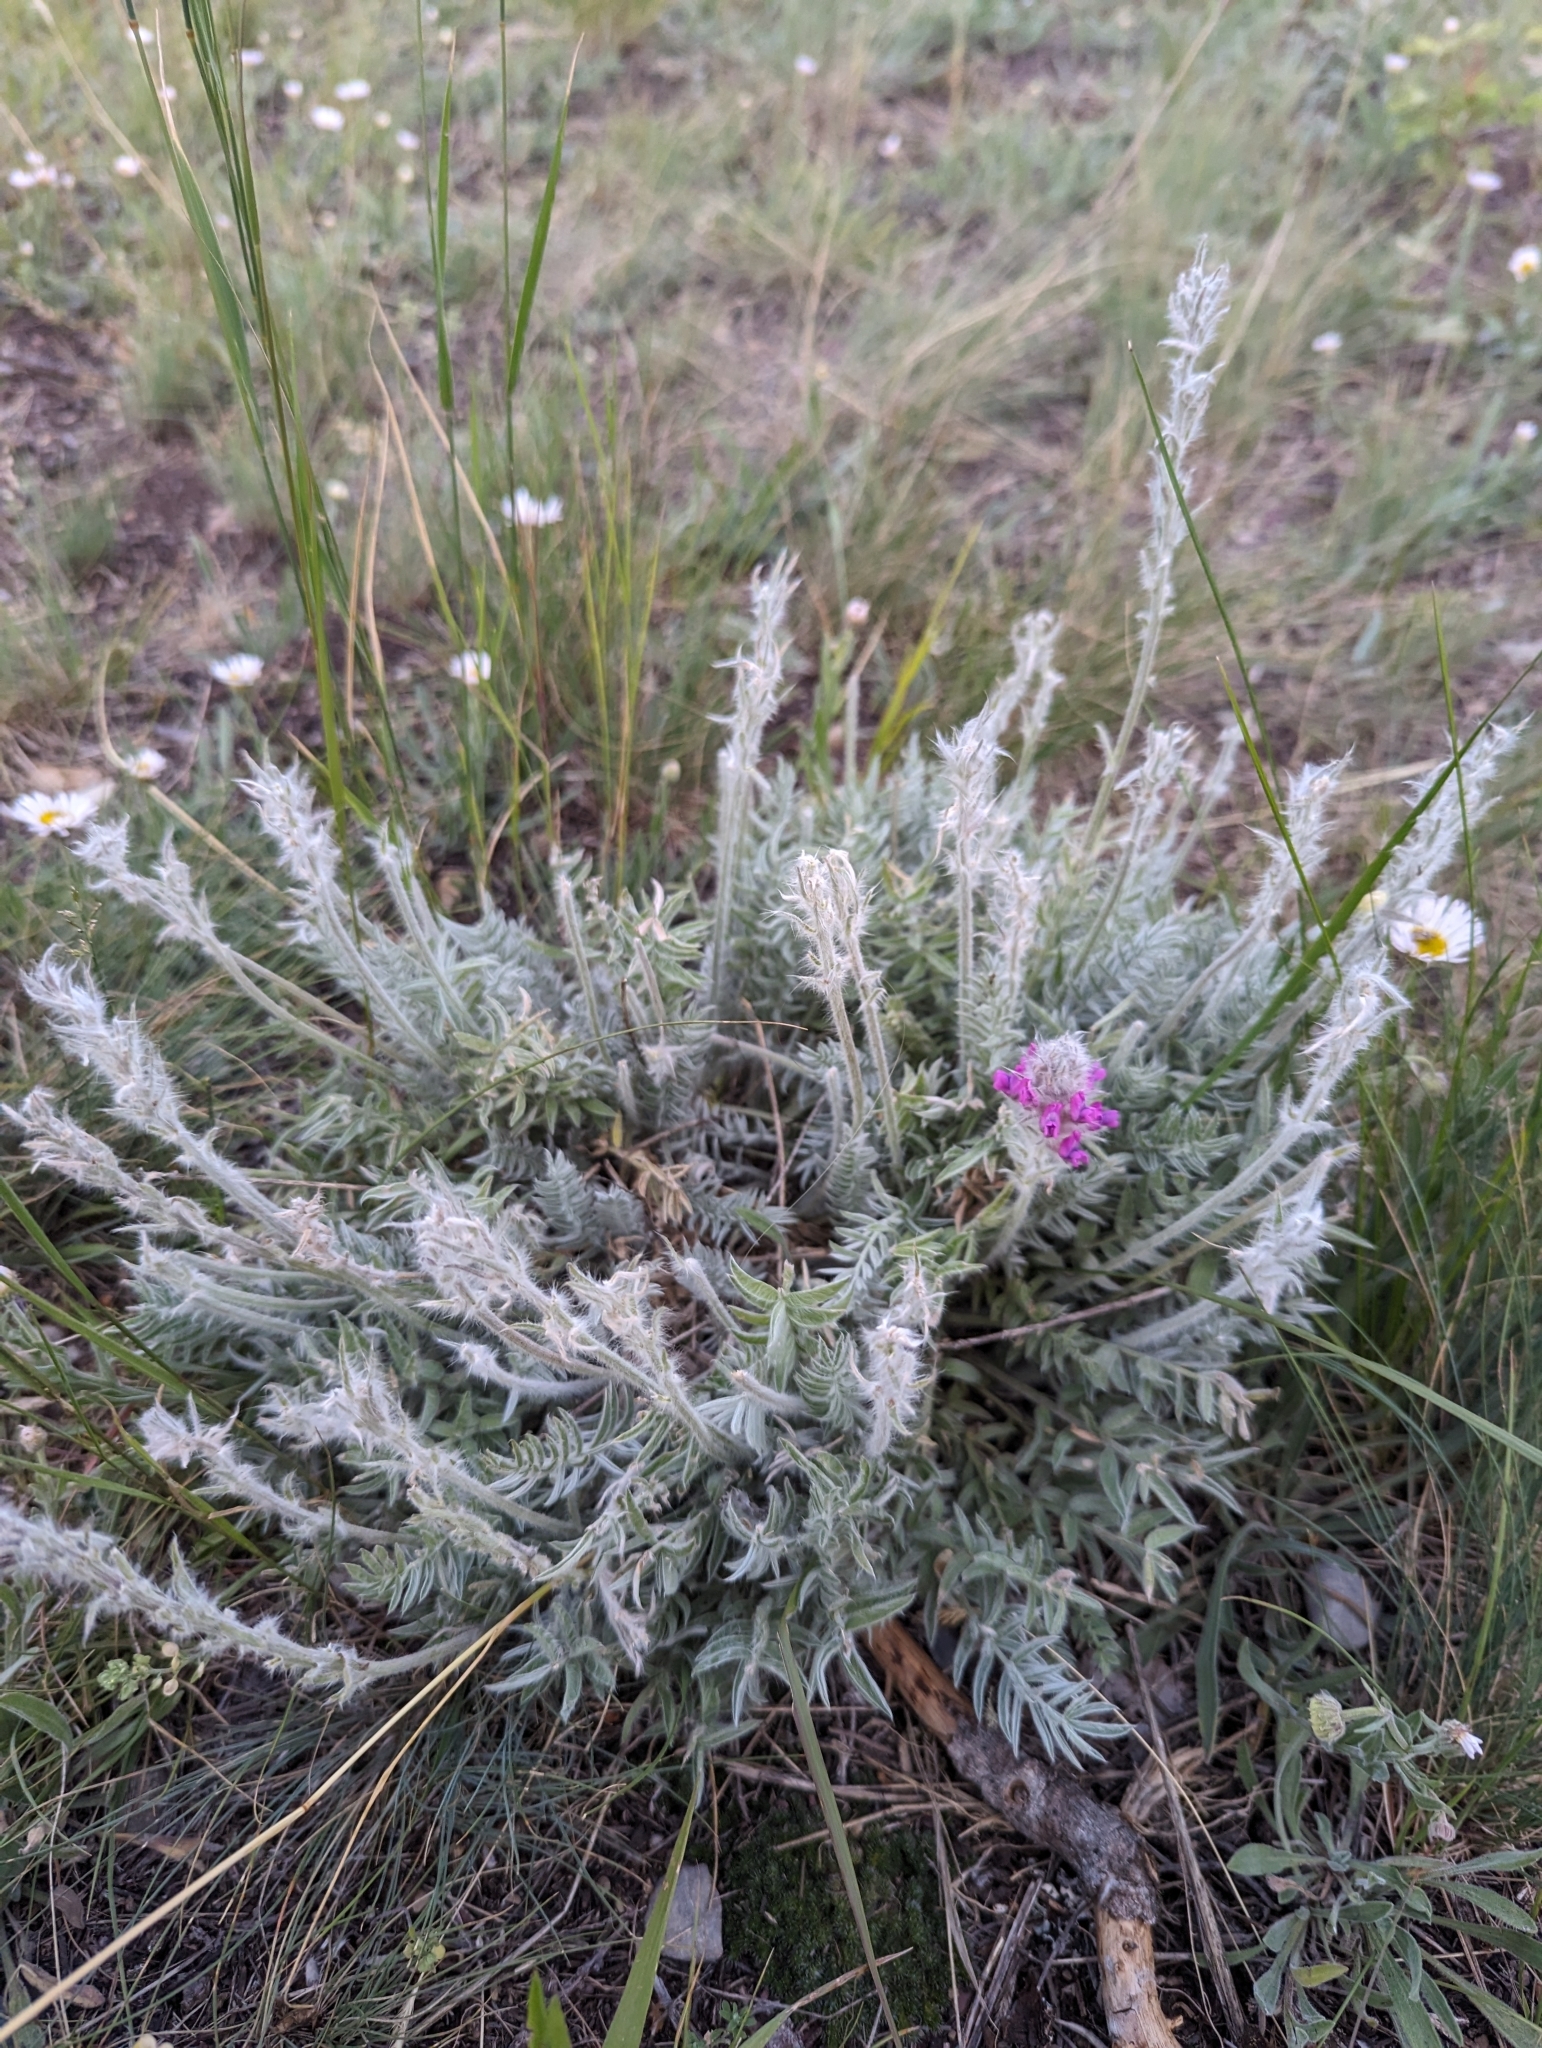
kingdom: Plantae
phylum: Tracheophyta
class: Magnoliopsida
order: Fabales
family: Fabaceae
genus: Oxytropis
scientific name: Oxytropis splendens
